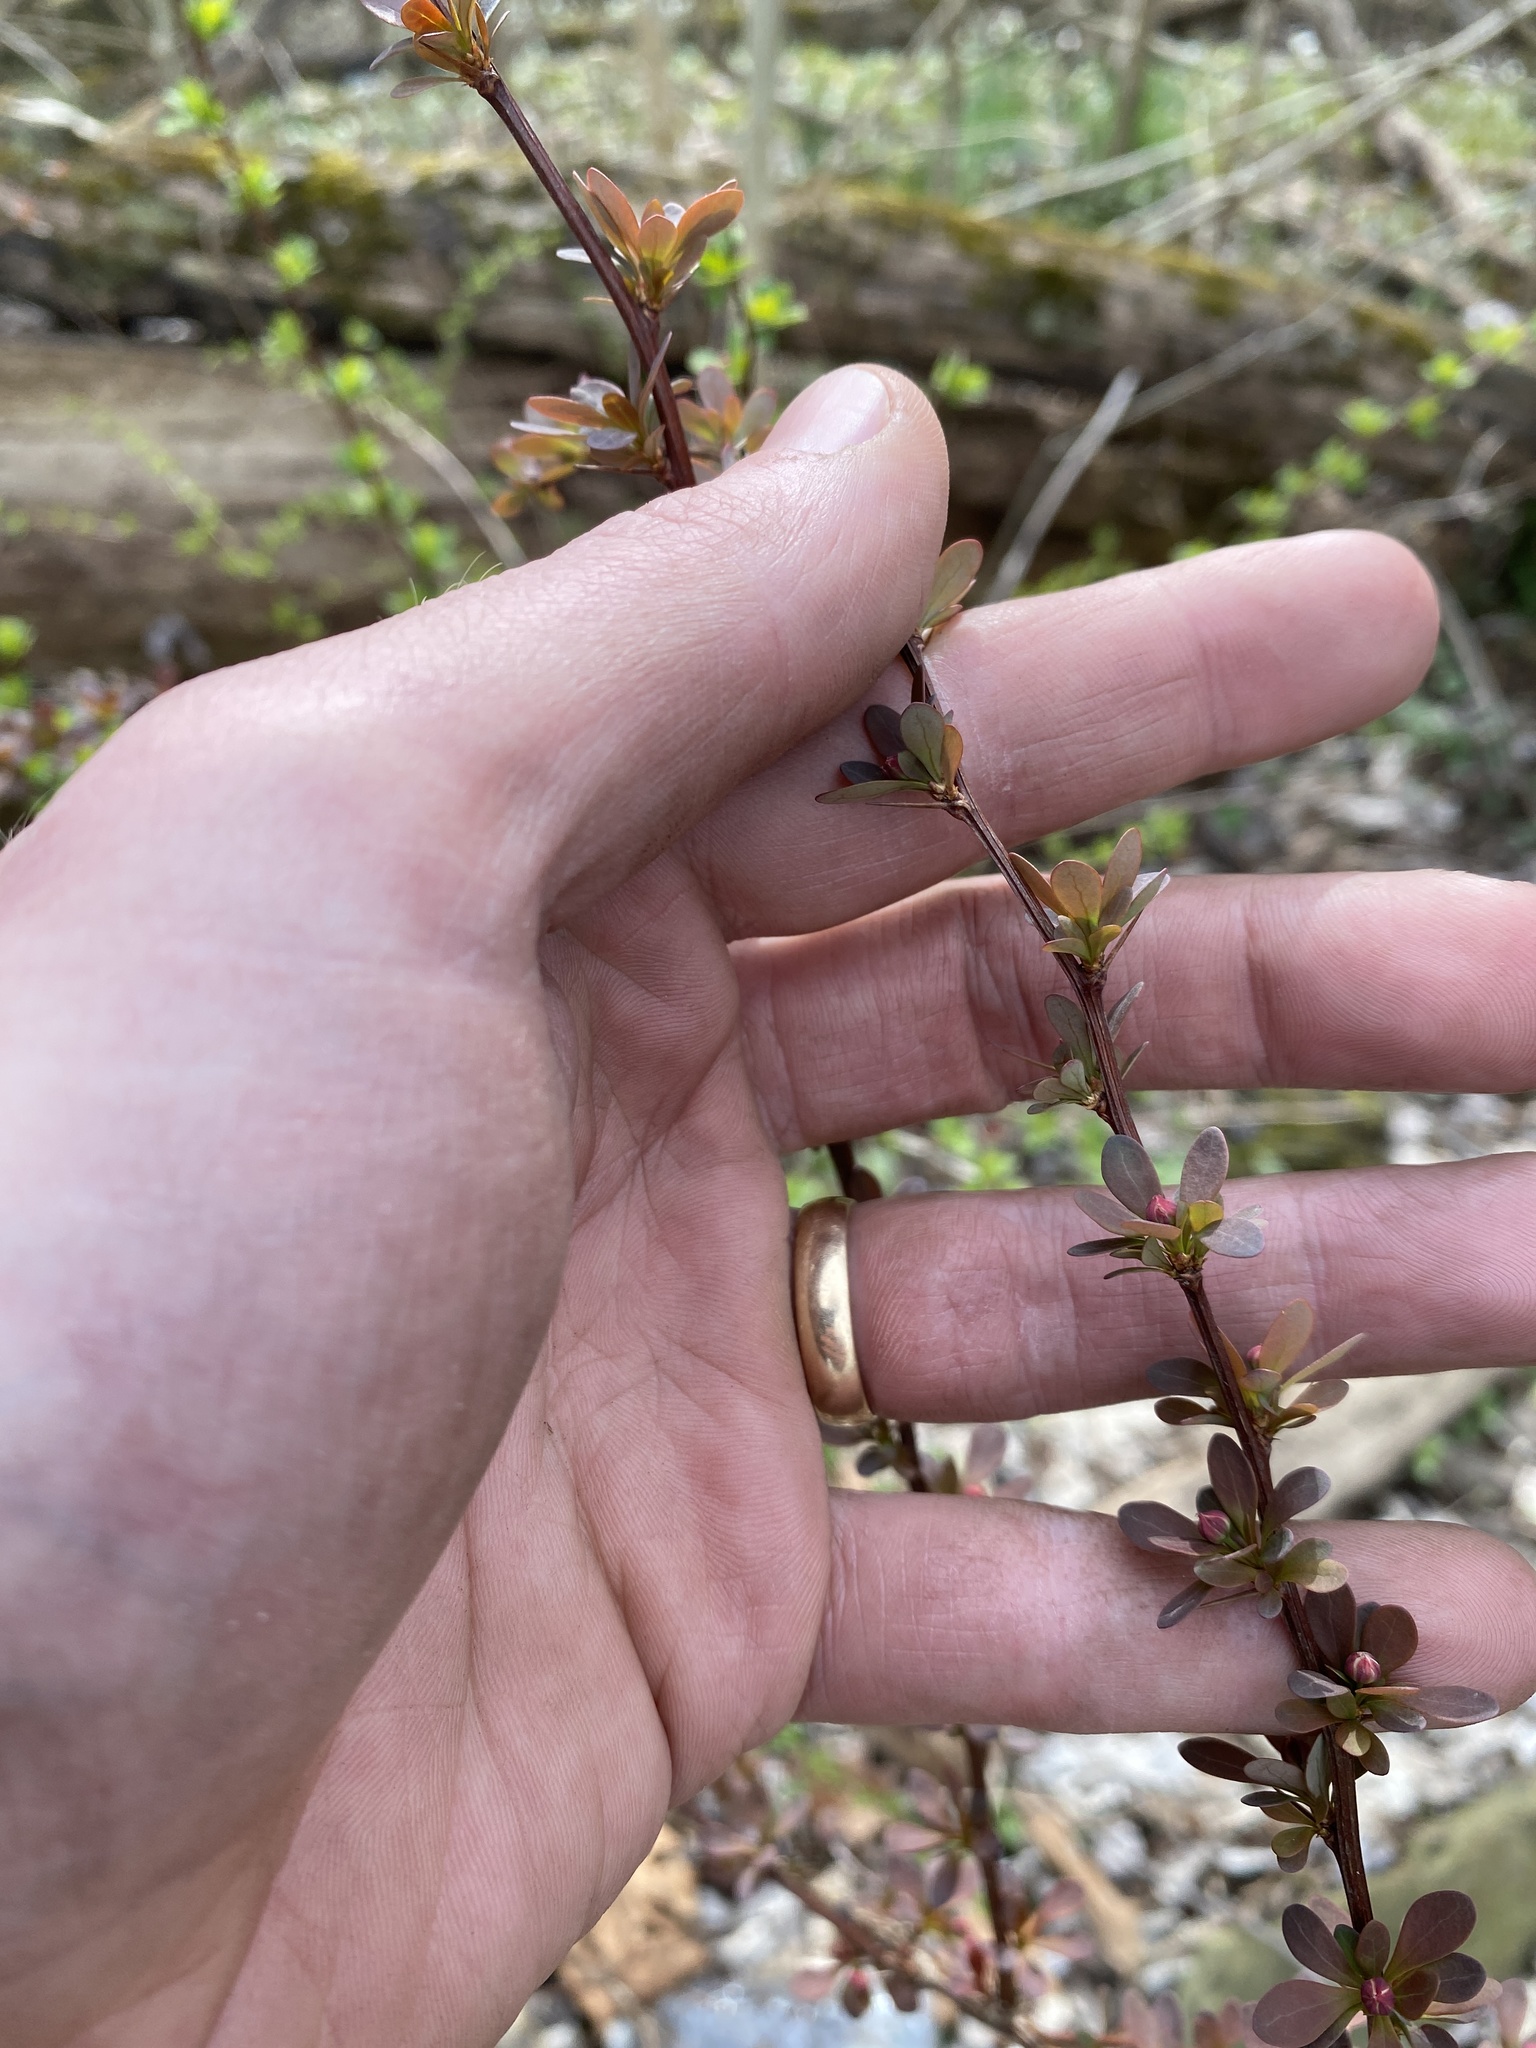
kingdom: Plantae
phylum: Tracheophyta
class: Magnoliopsida
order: Ranunculales
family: Berberidaceae
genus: Berberis
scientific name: Berberis thunbergii
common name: Japanese barberry
